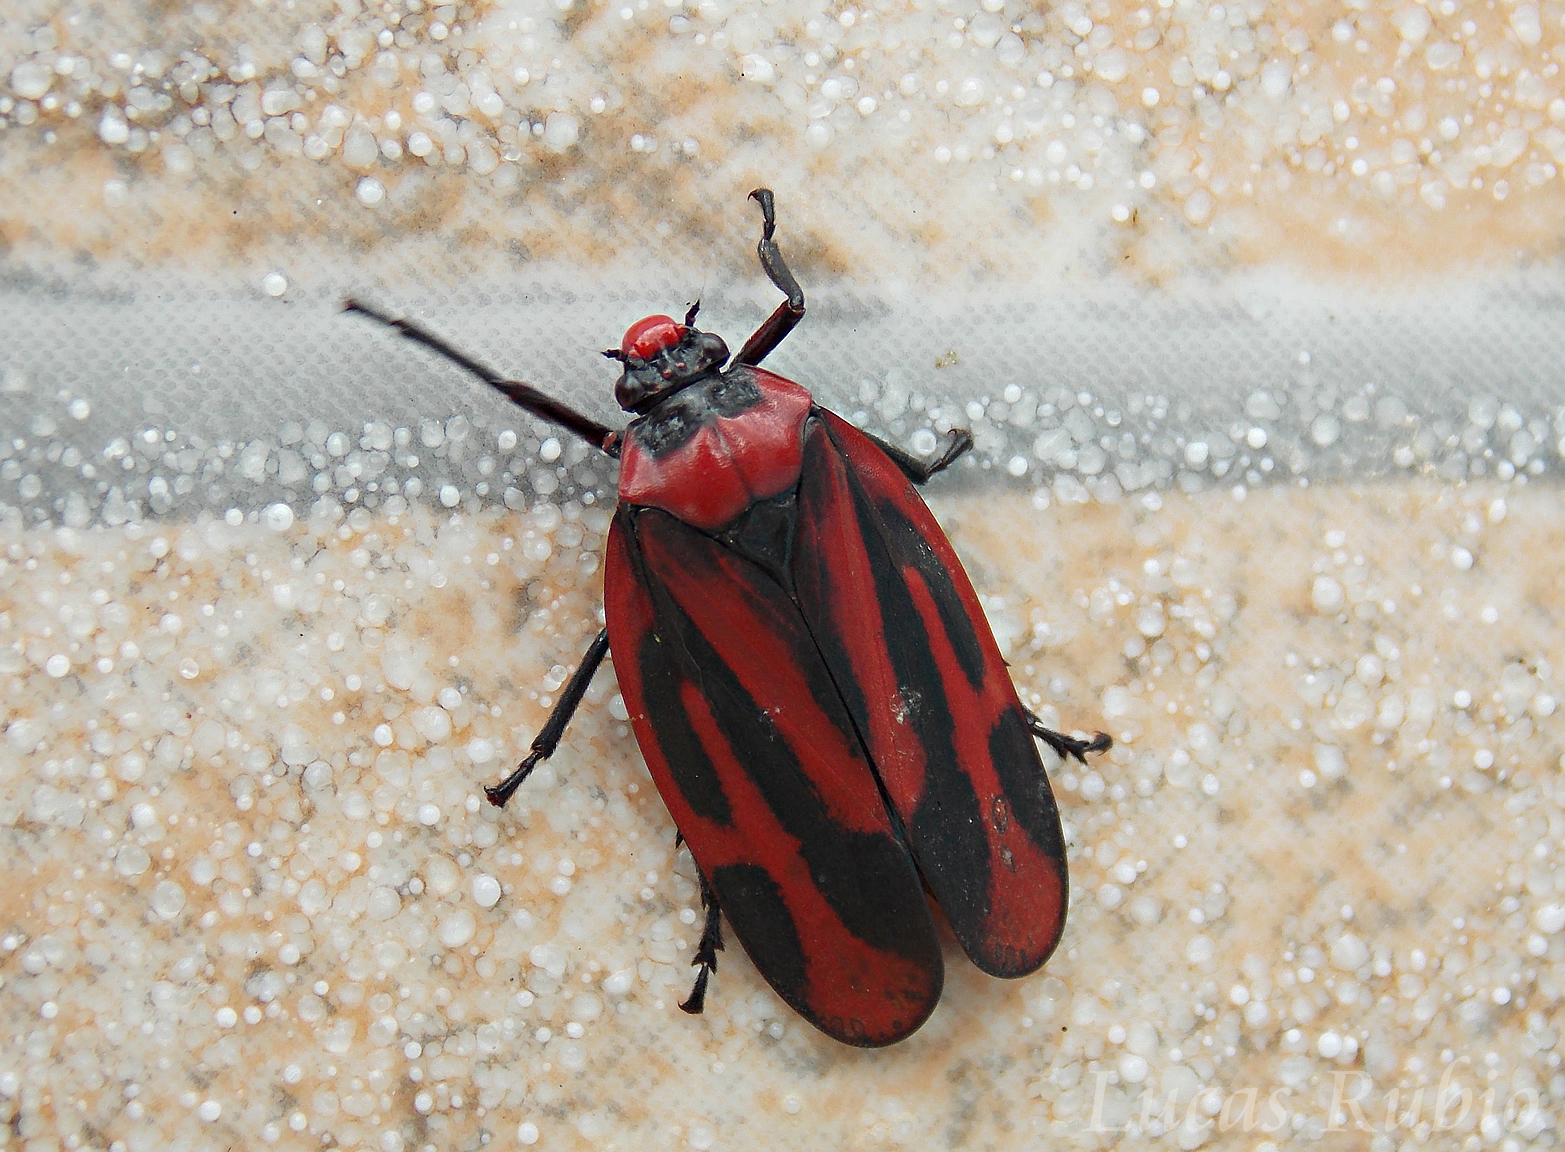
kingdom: Animalia
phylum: Arthropoda
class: Insecta
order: Hemiptera
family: Cercopidae
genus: Tomaspis
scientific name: Tomaspis furcata
